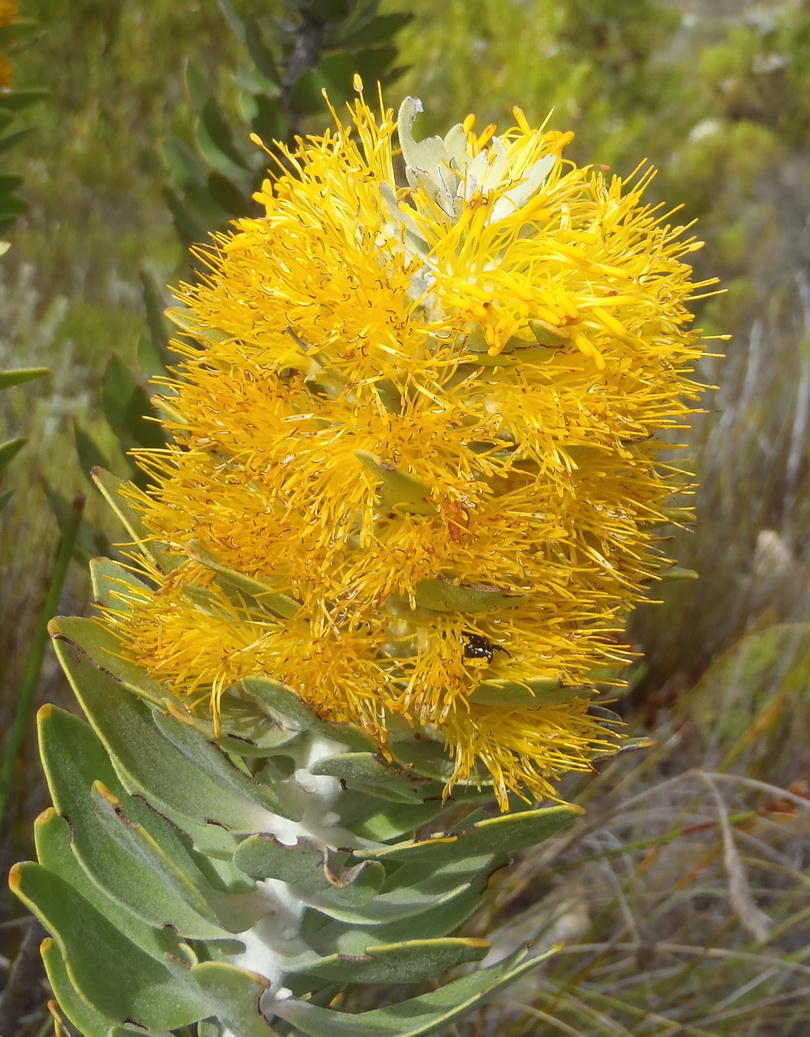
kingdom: Plantae
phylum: Tracheophyta
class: Magnoliopsida
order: Proteales
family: Proteaceae
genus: Mimetes
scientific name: Mimetes chrysanthus
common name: Golden pagoda
